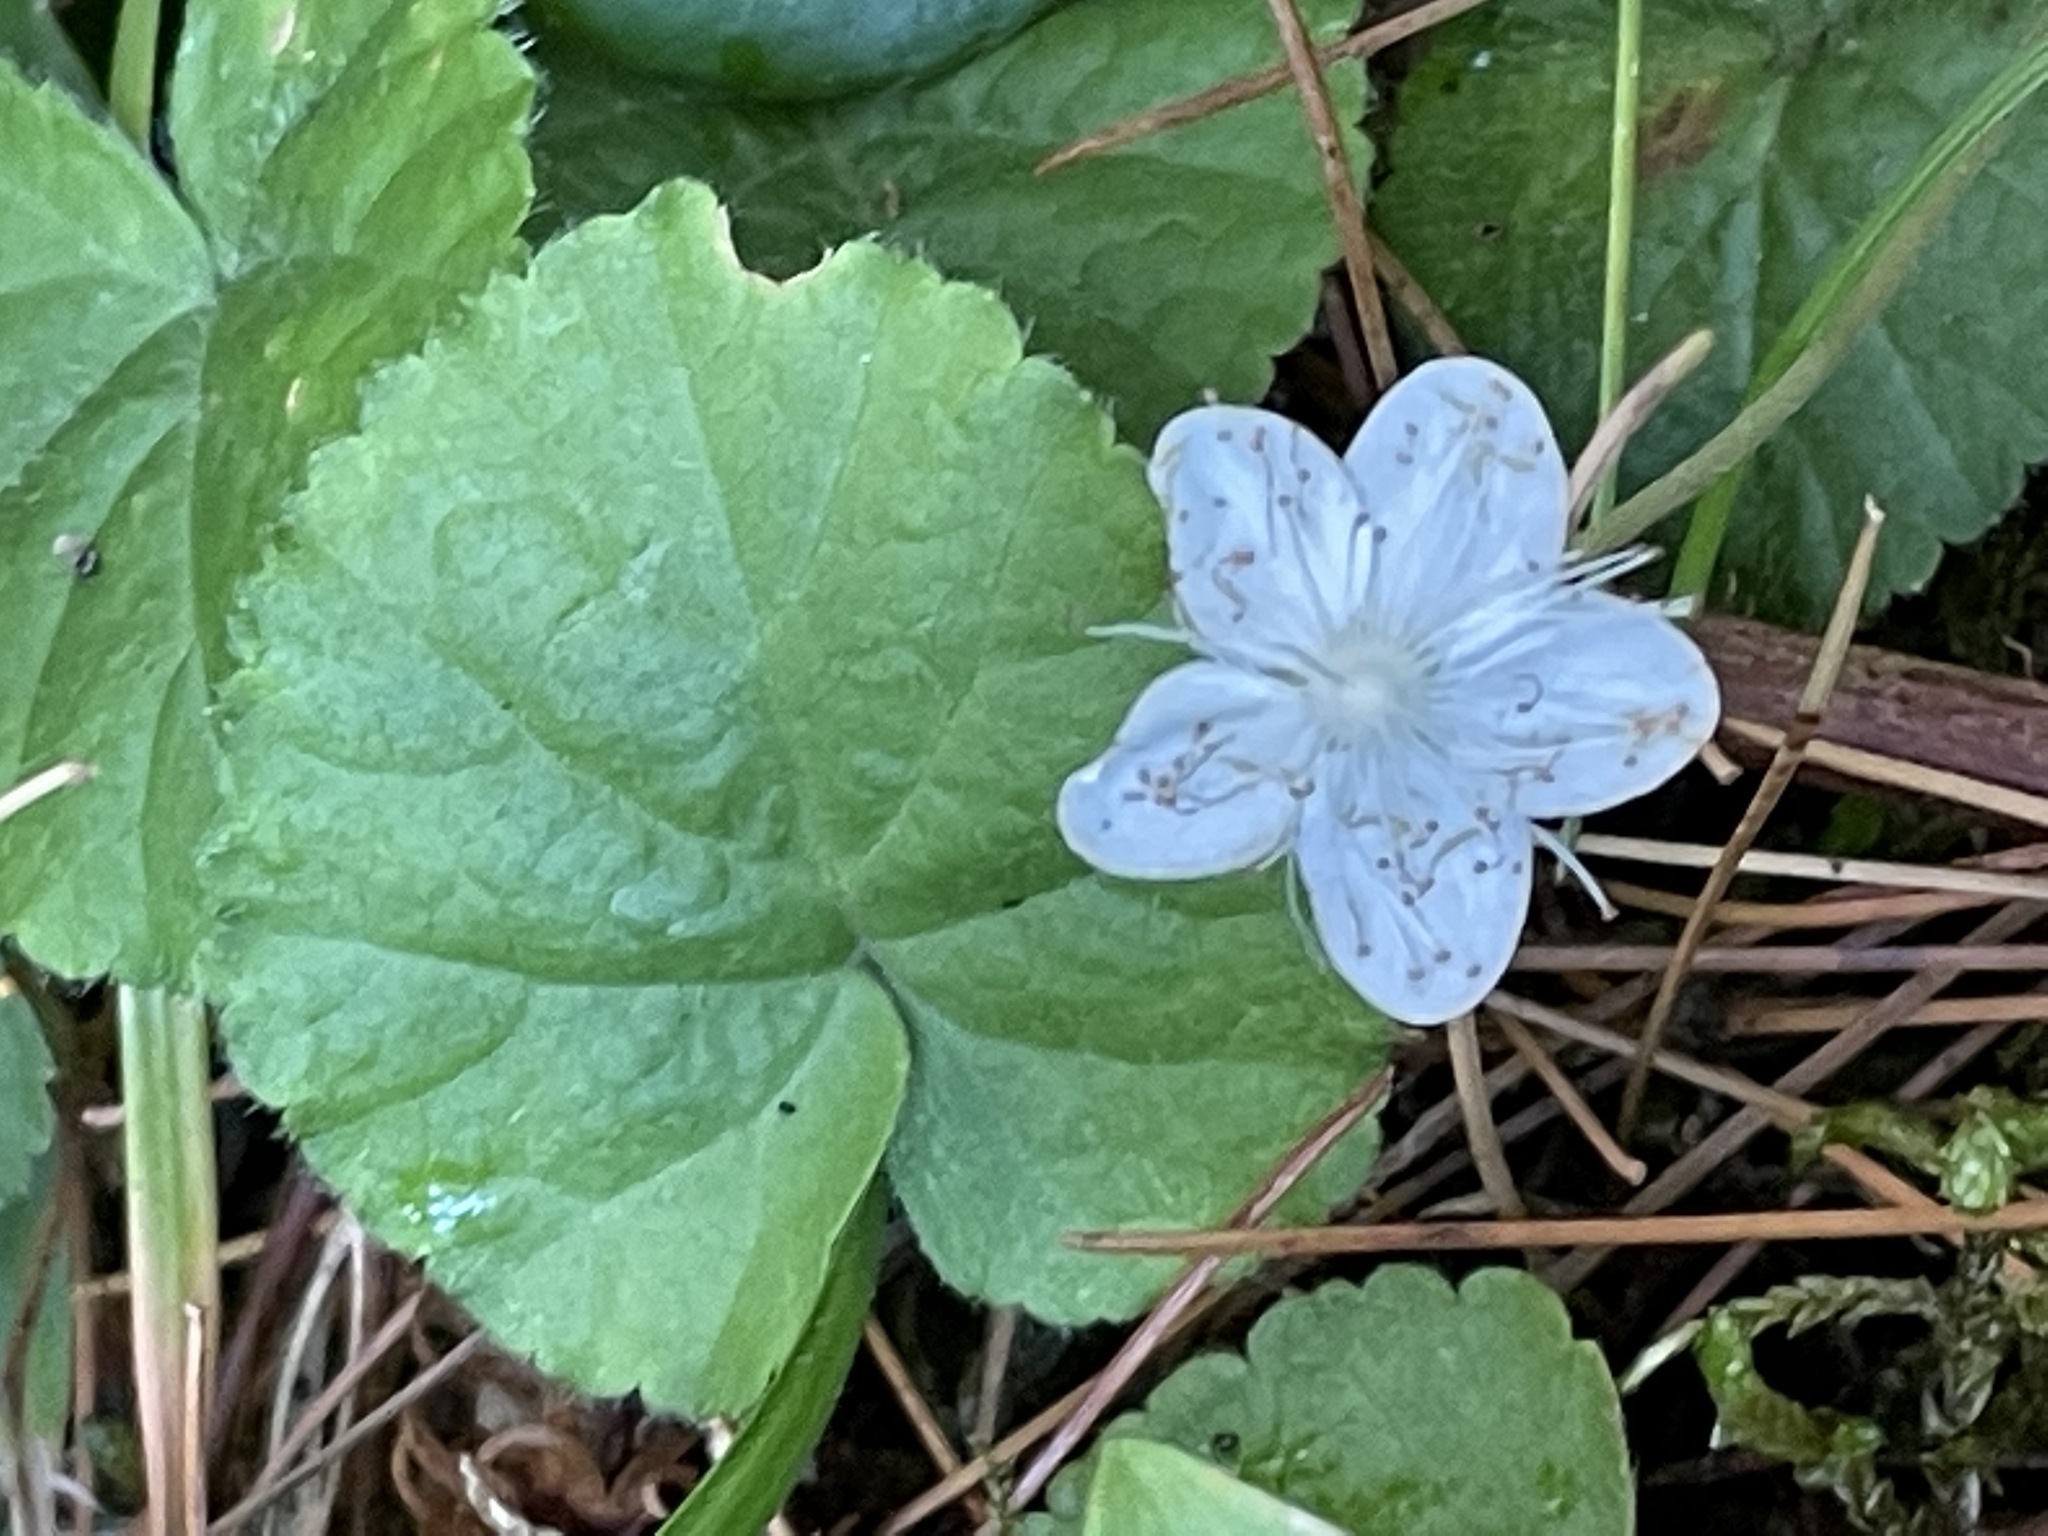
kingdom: Plantae
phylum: Tracheophyta
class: Magnoliopsida
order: Rosales
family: Rosaceae
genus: Dalibarda
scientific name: Dalibarda repens
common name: Dewdrop
